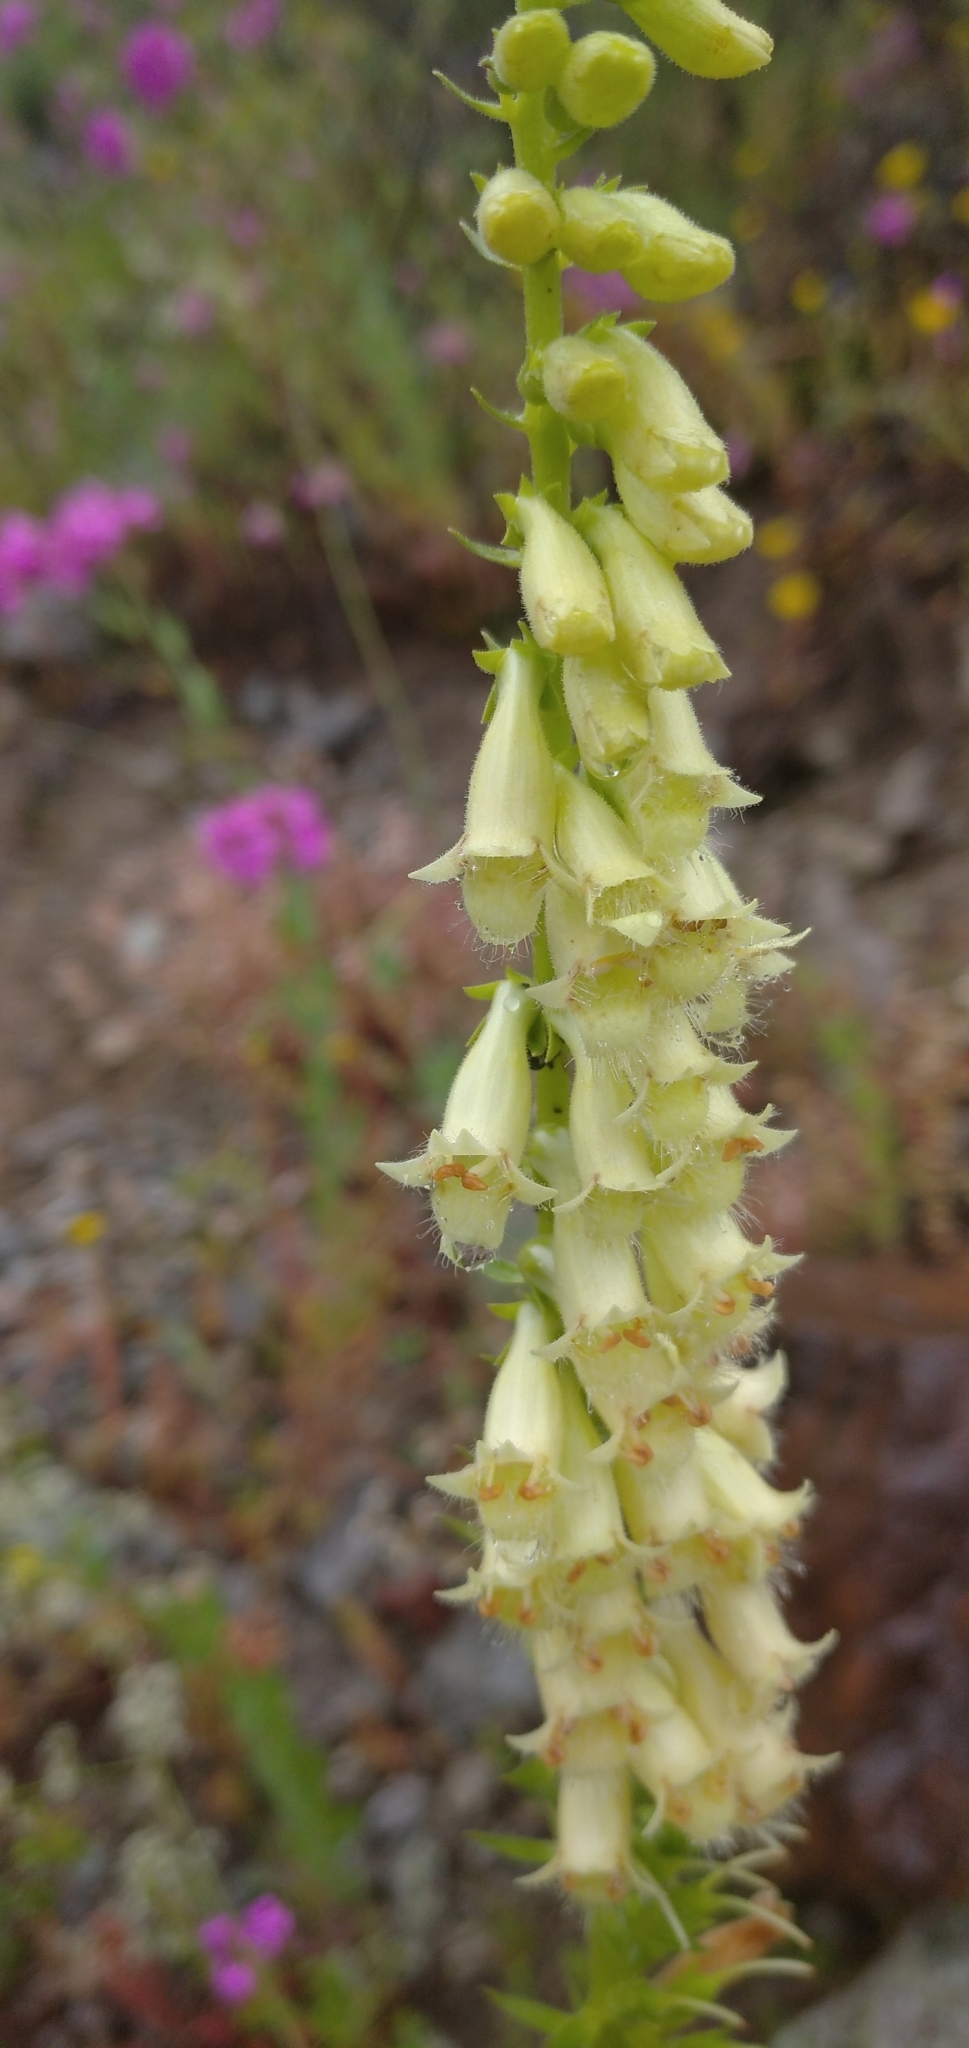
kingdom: Plantae
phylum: Tracheophyta
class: Magnoliopsida
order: Lamiales
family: Plantaginaceae
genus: Digitalis
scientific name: Digitalis lutea
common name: Straw foxglove
